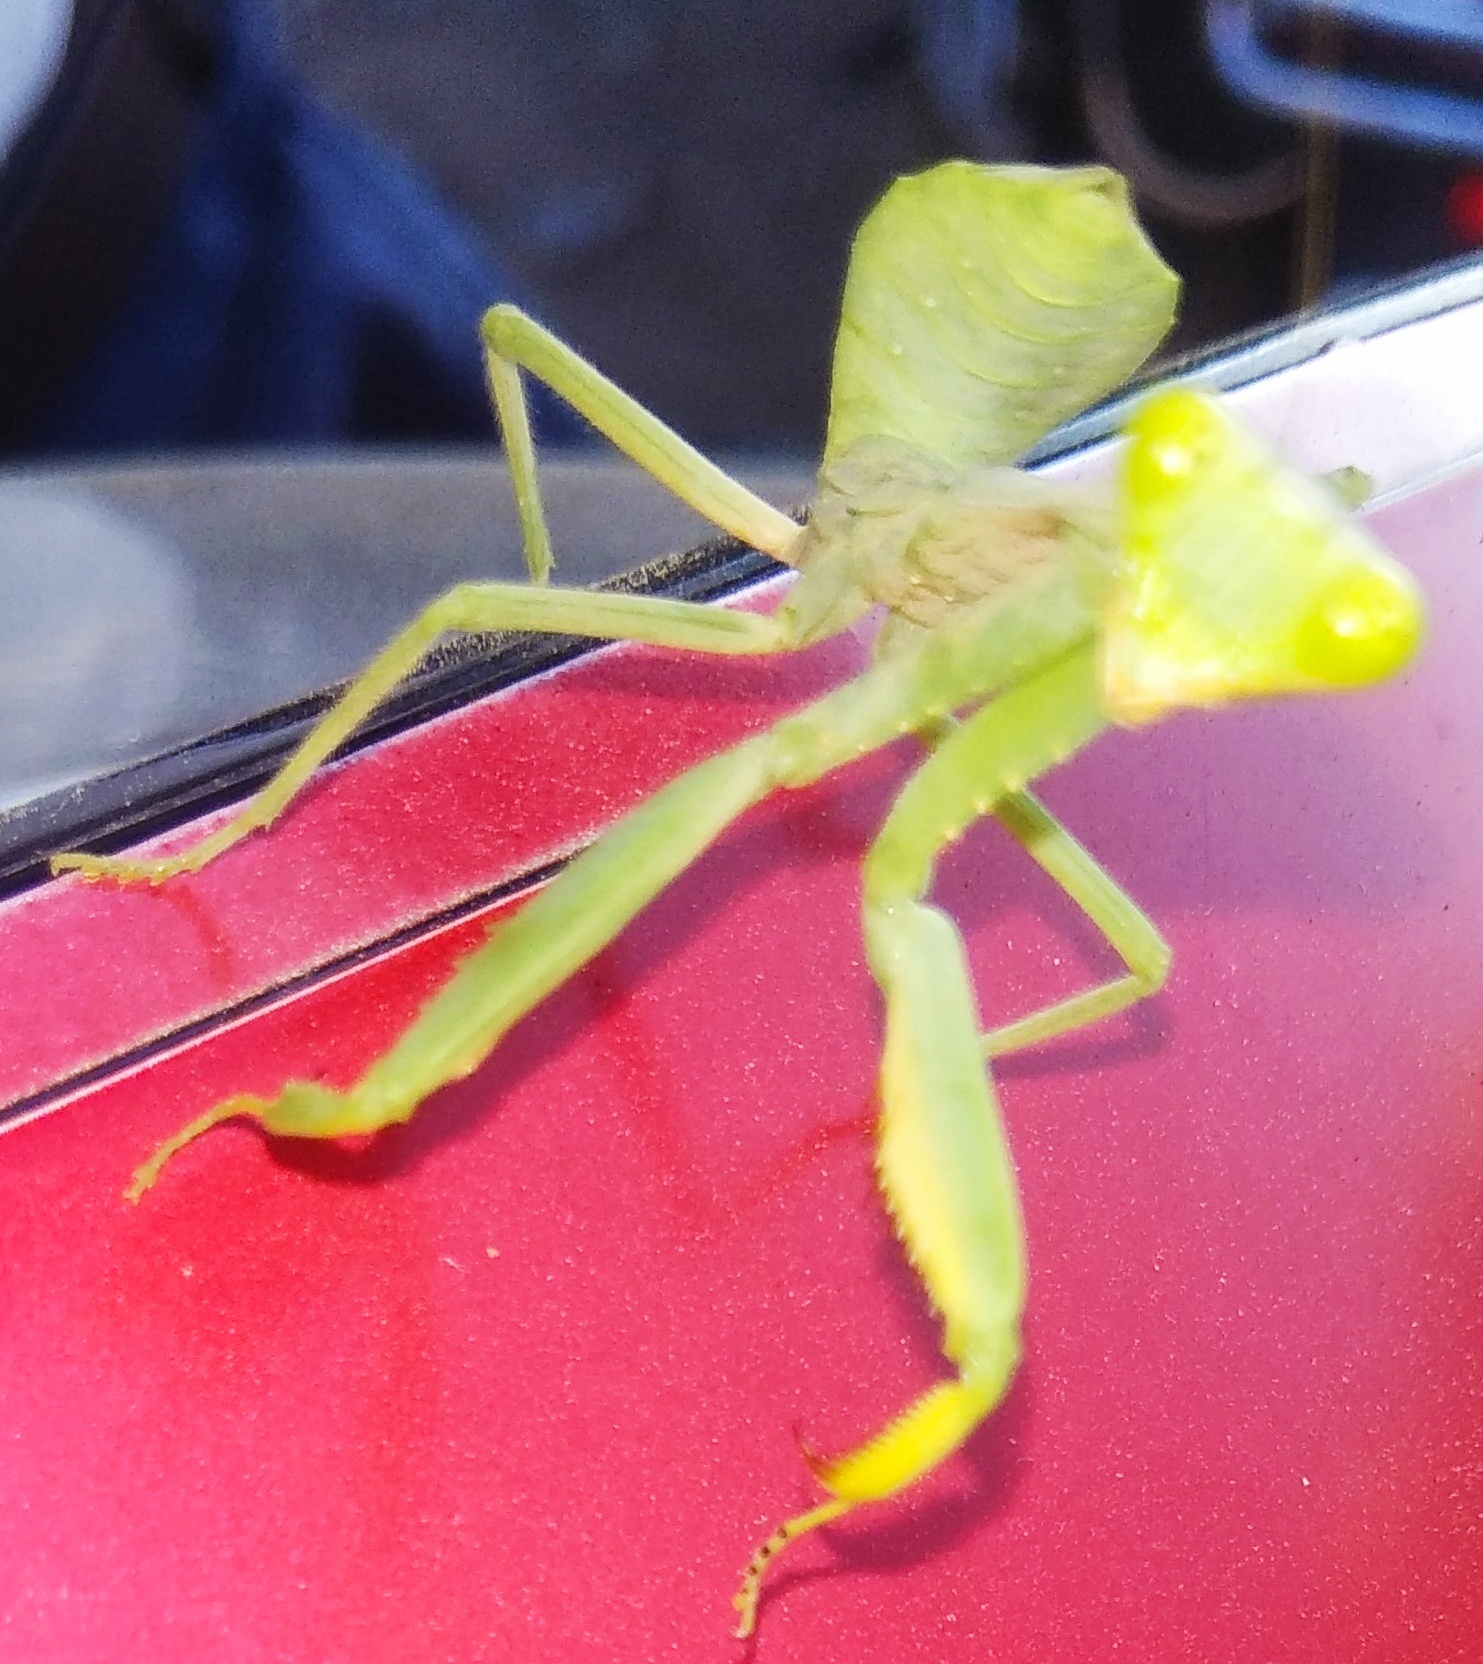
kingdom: Animalia
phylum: Arthropoda
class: Insecta
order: Mantodea
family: Mantidae
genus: Hierodula
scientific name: Hierodula tenuidentata
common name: Giant asian mantis
